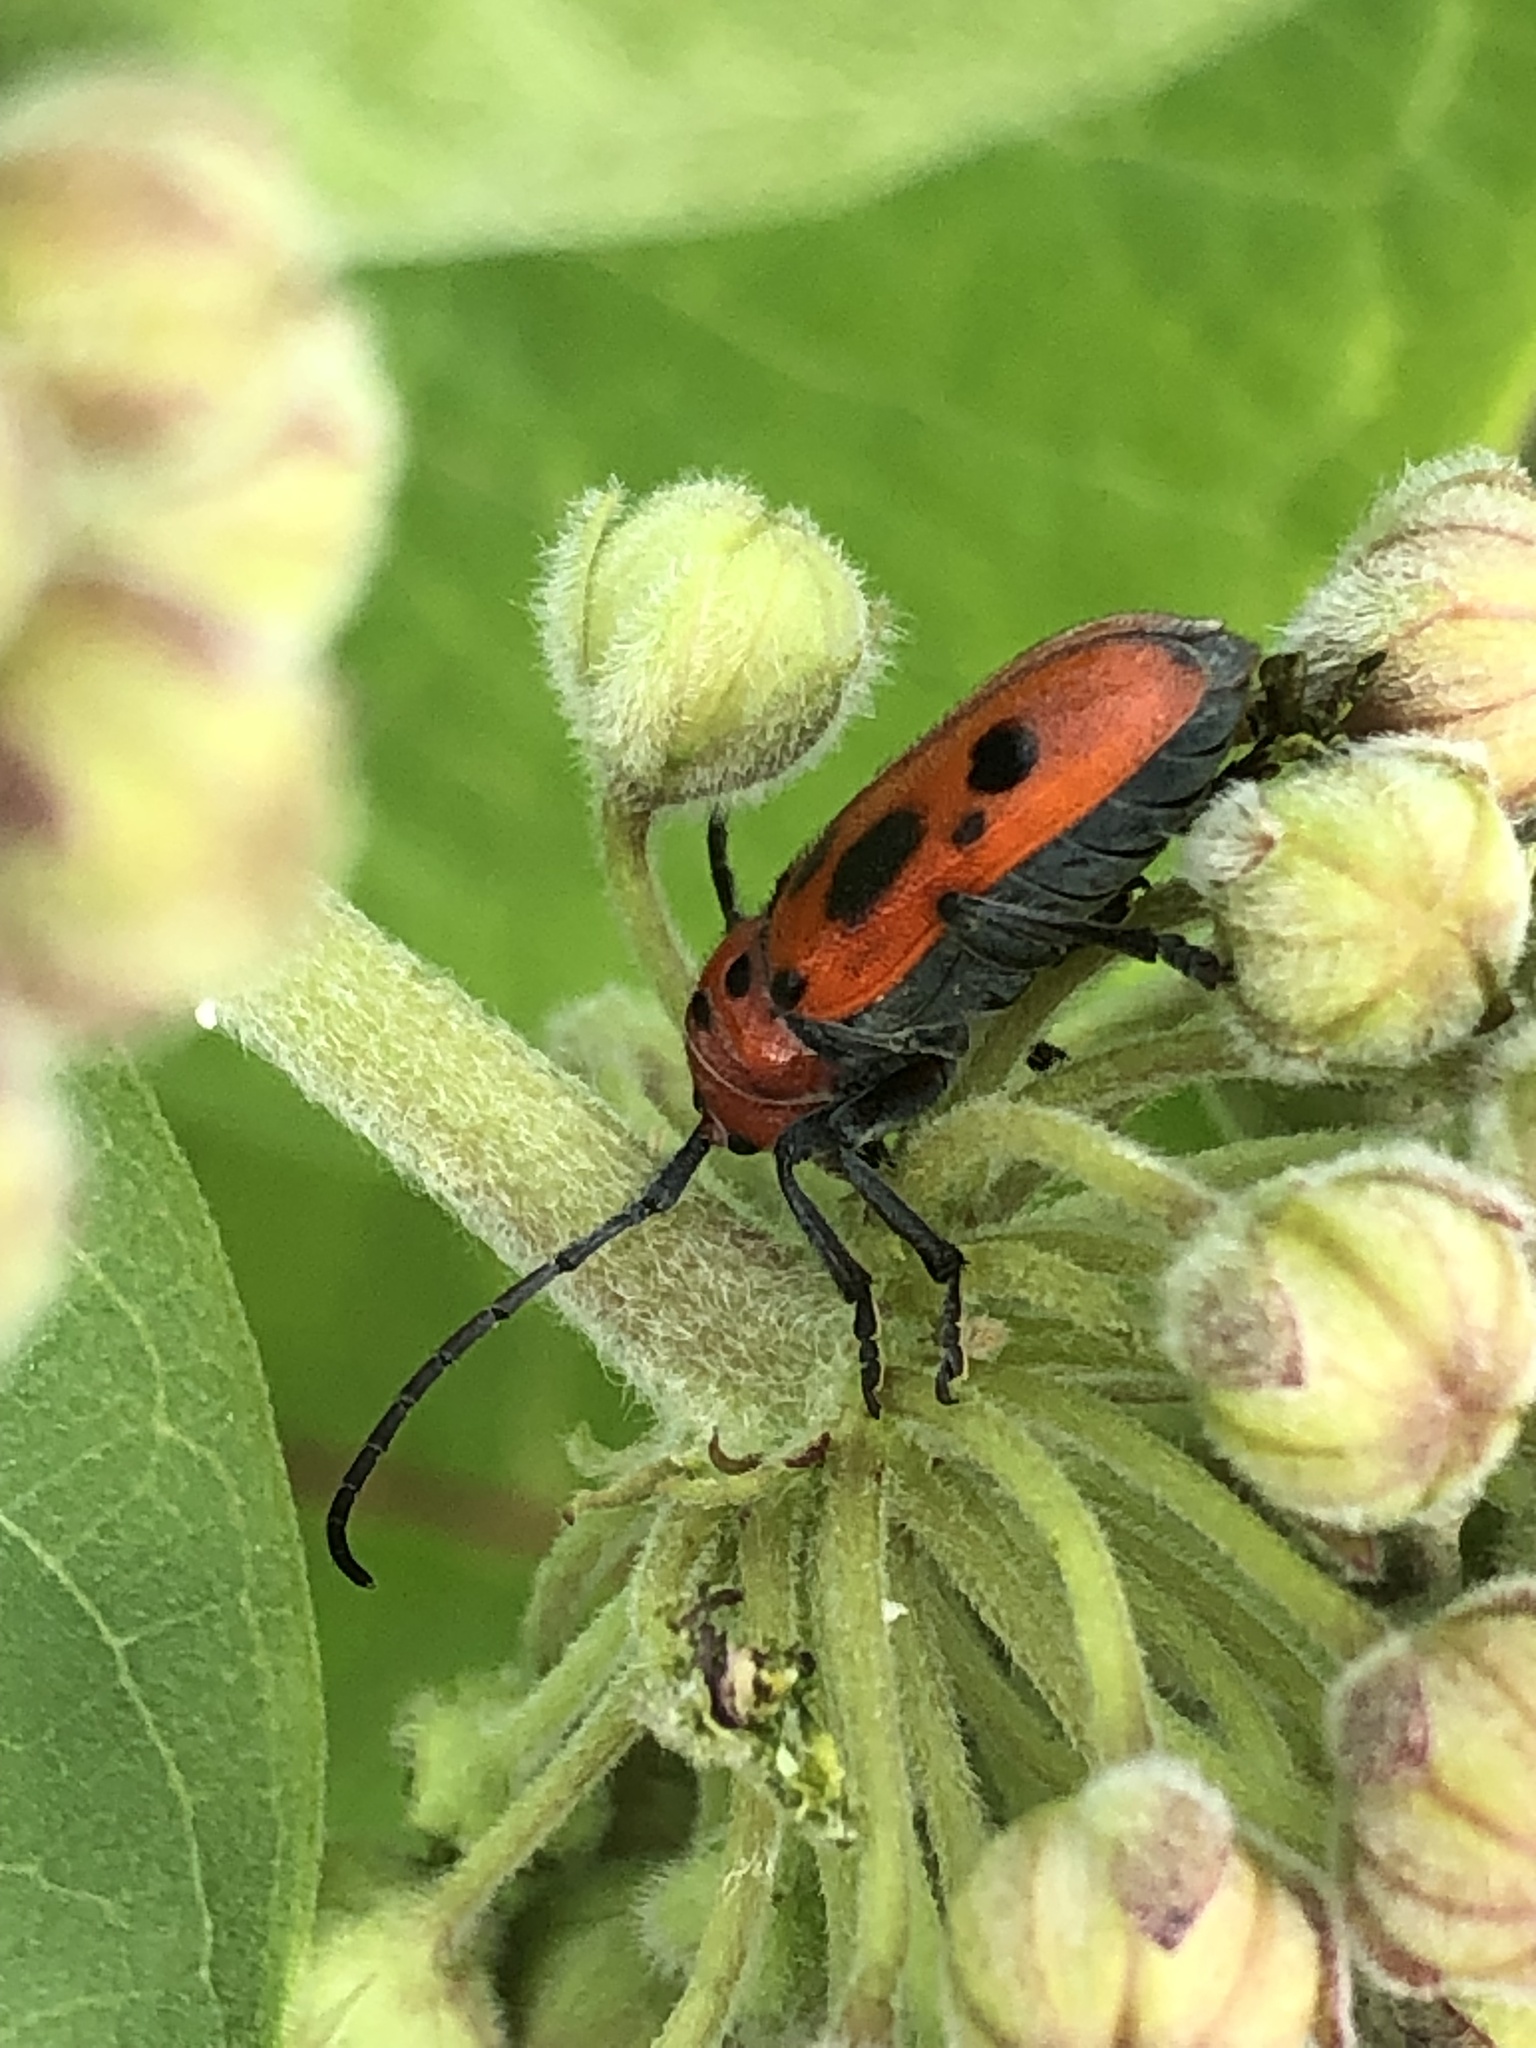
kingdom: Animalia
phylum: Arthropoda
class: Insecta
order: Coleoptera
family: Cerambycidae
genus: Tetraopes
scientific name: Tetraopes tetrophthalmus
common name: Red milkweed beetle
